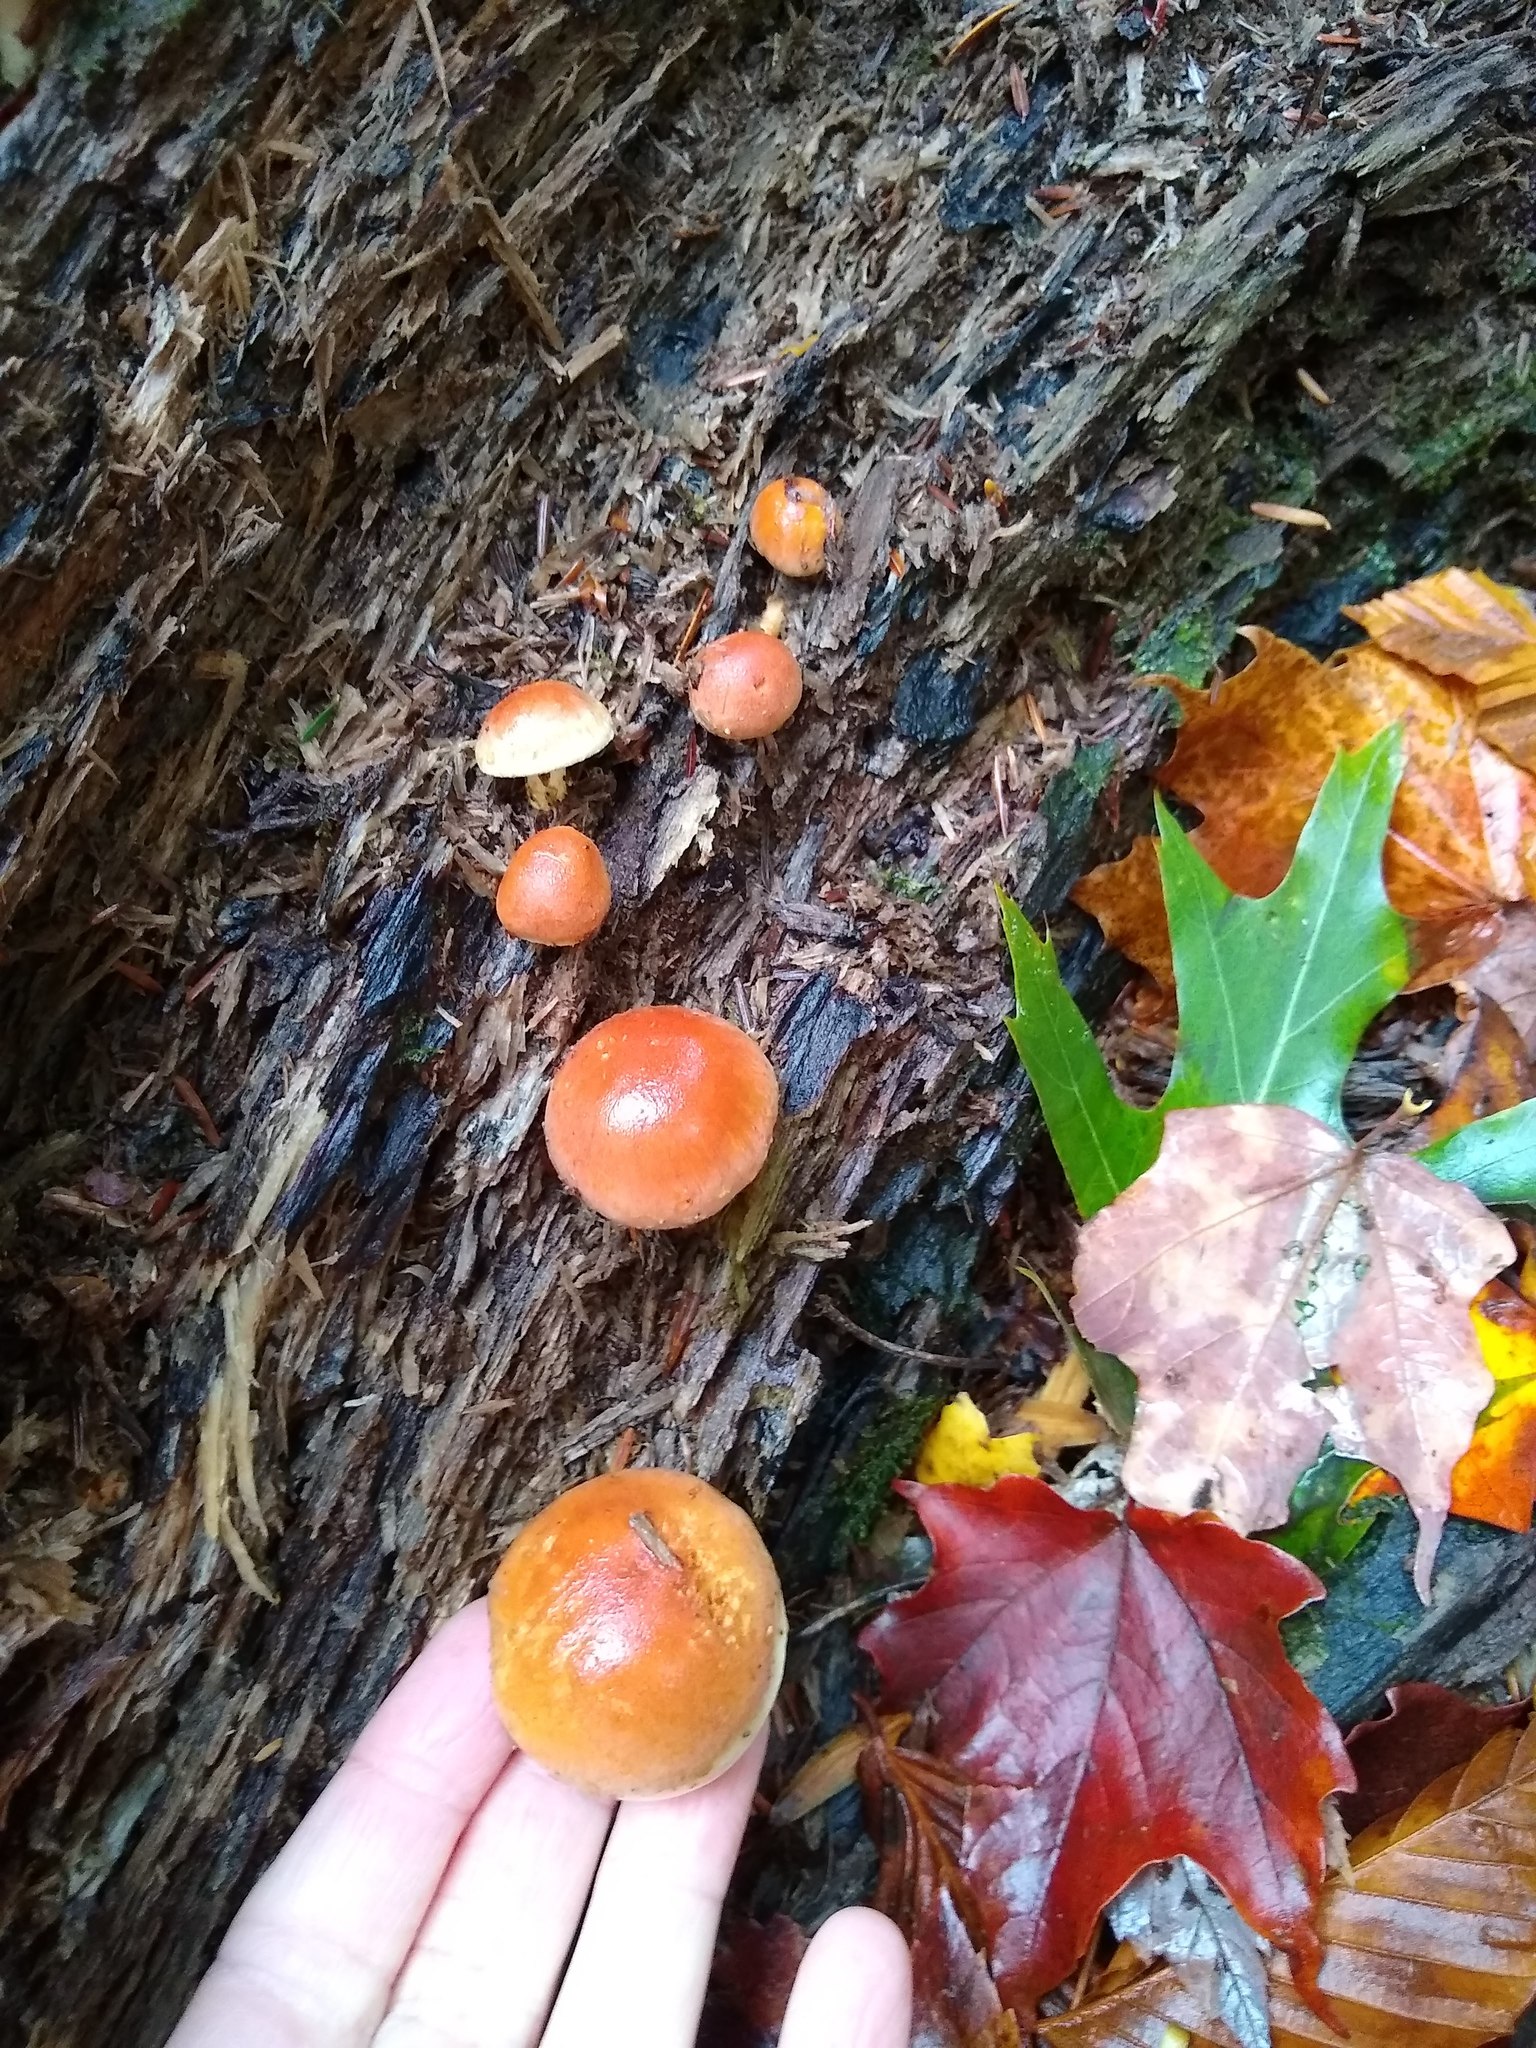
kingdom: Fungi
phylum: Basidiomycota
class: Agaricomycetes
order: Agaricales
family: Strophariaceae
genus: Hypholoma
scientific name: Hypholoma lateritium
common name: Brick caps
